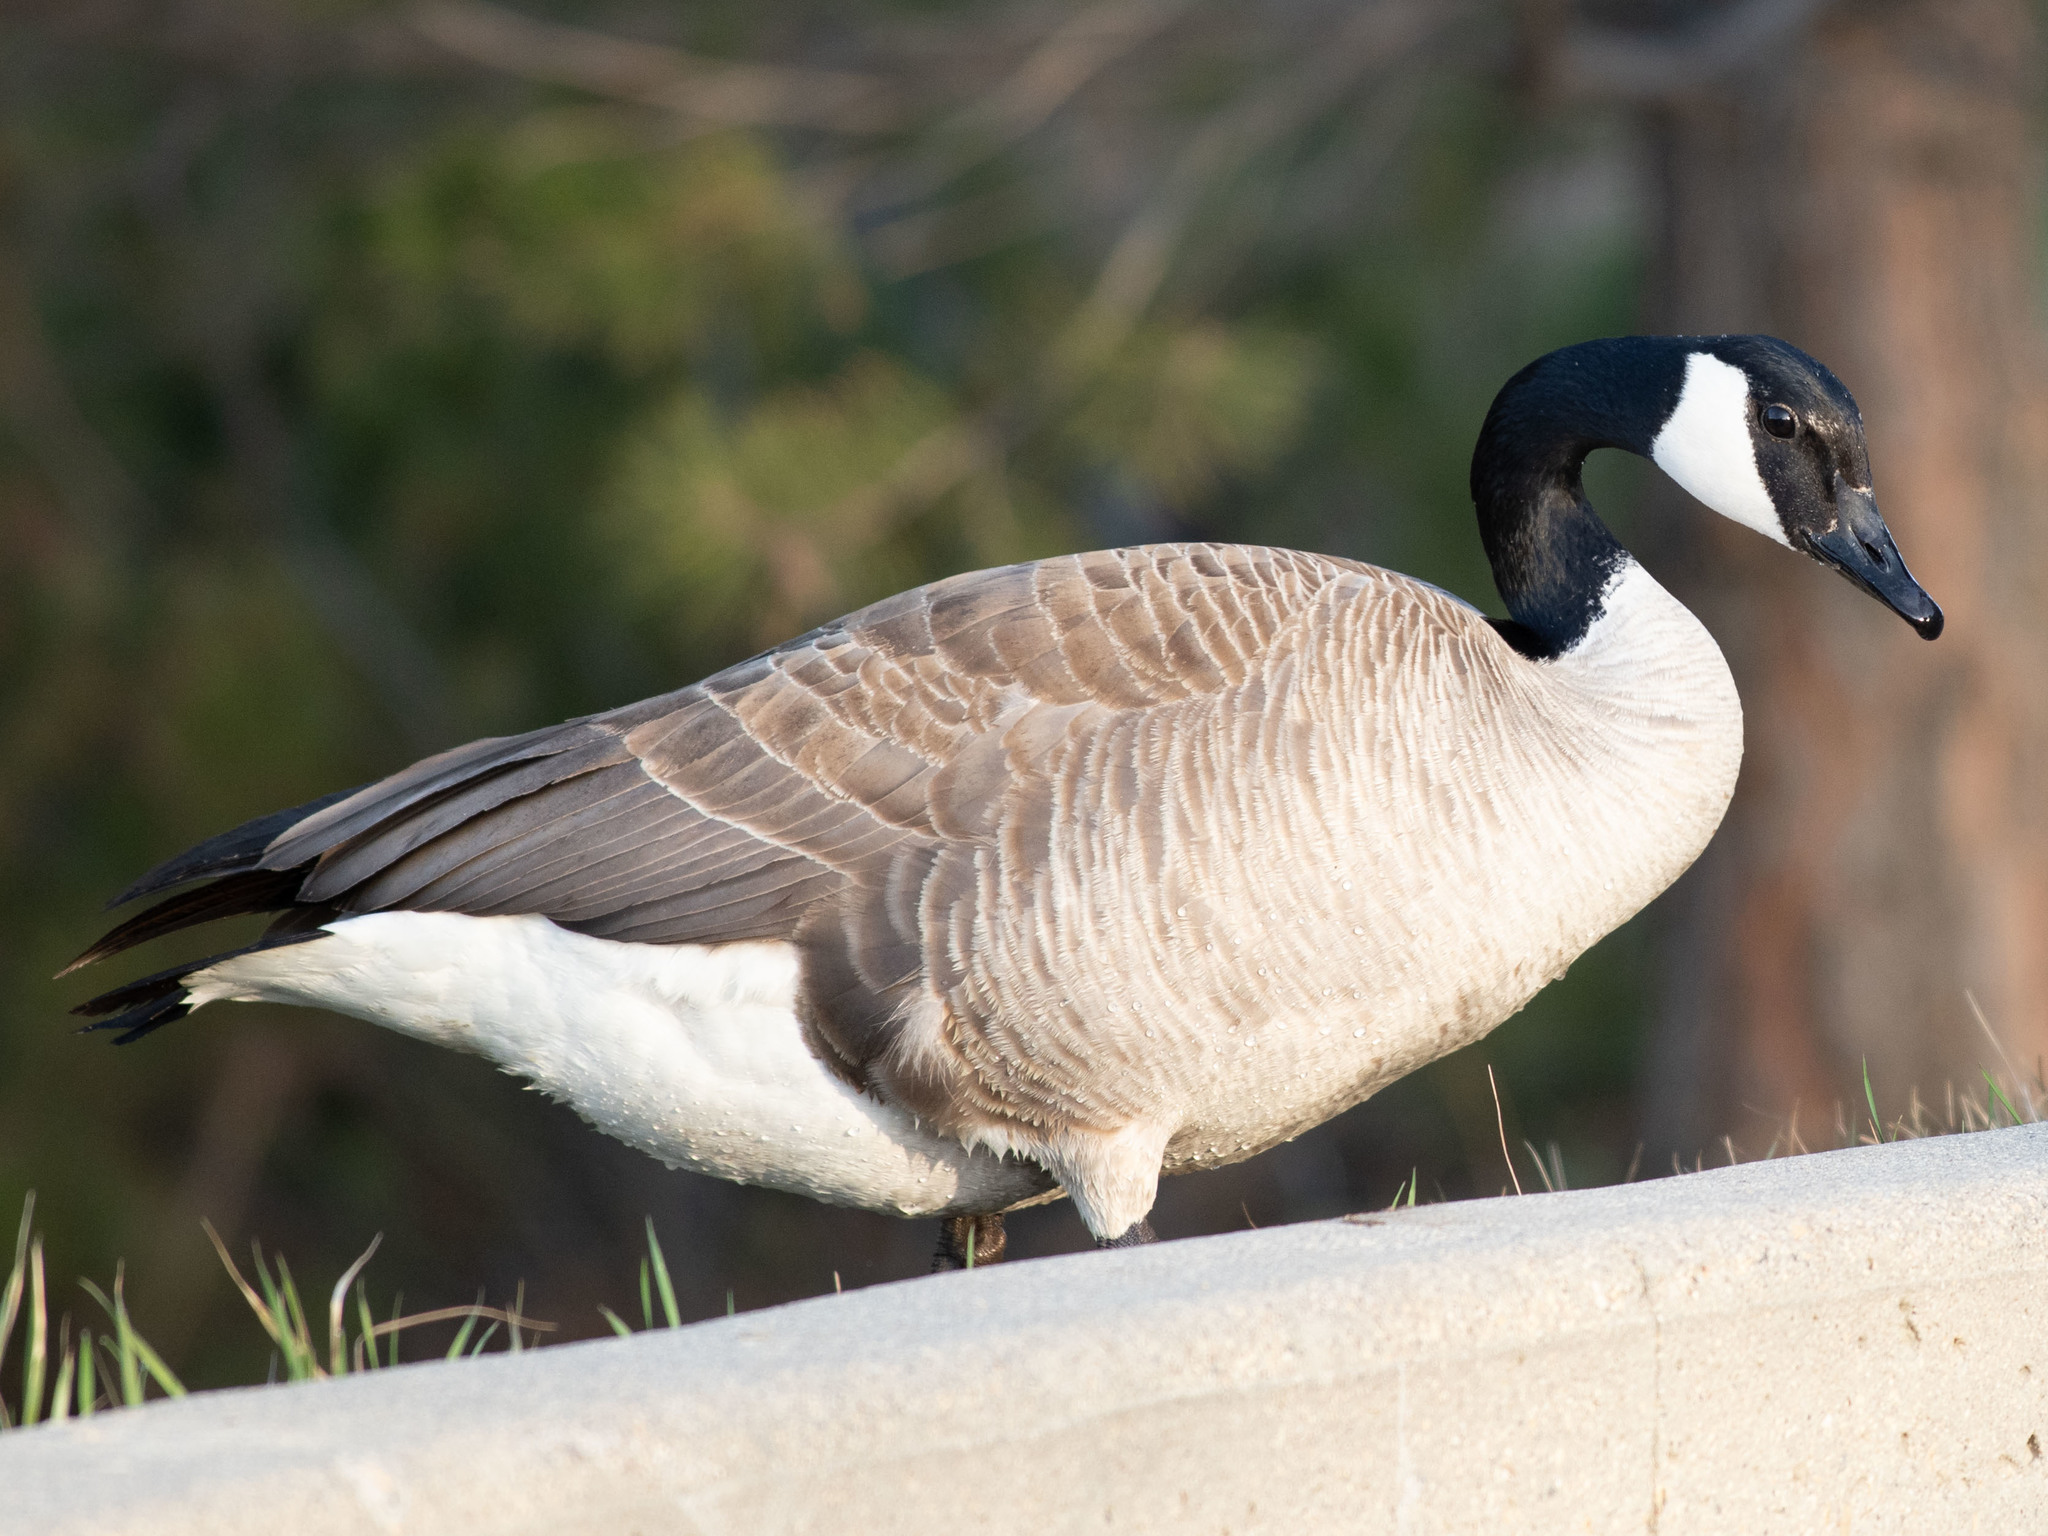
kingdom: Animalia
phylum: Chordata
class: Aves
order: Anseriformes
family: Anatidae
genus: Branta
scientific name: Branta canadensis
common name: Canada goose
